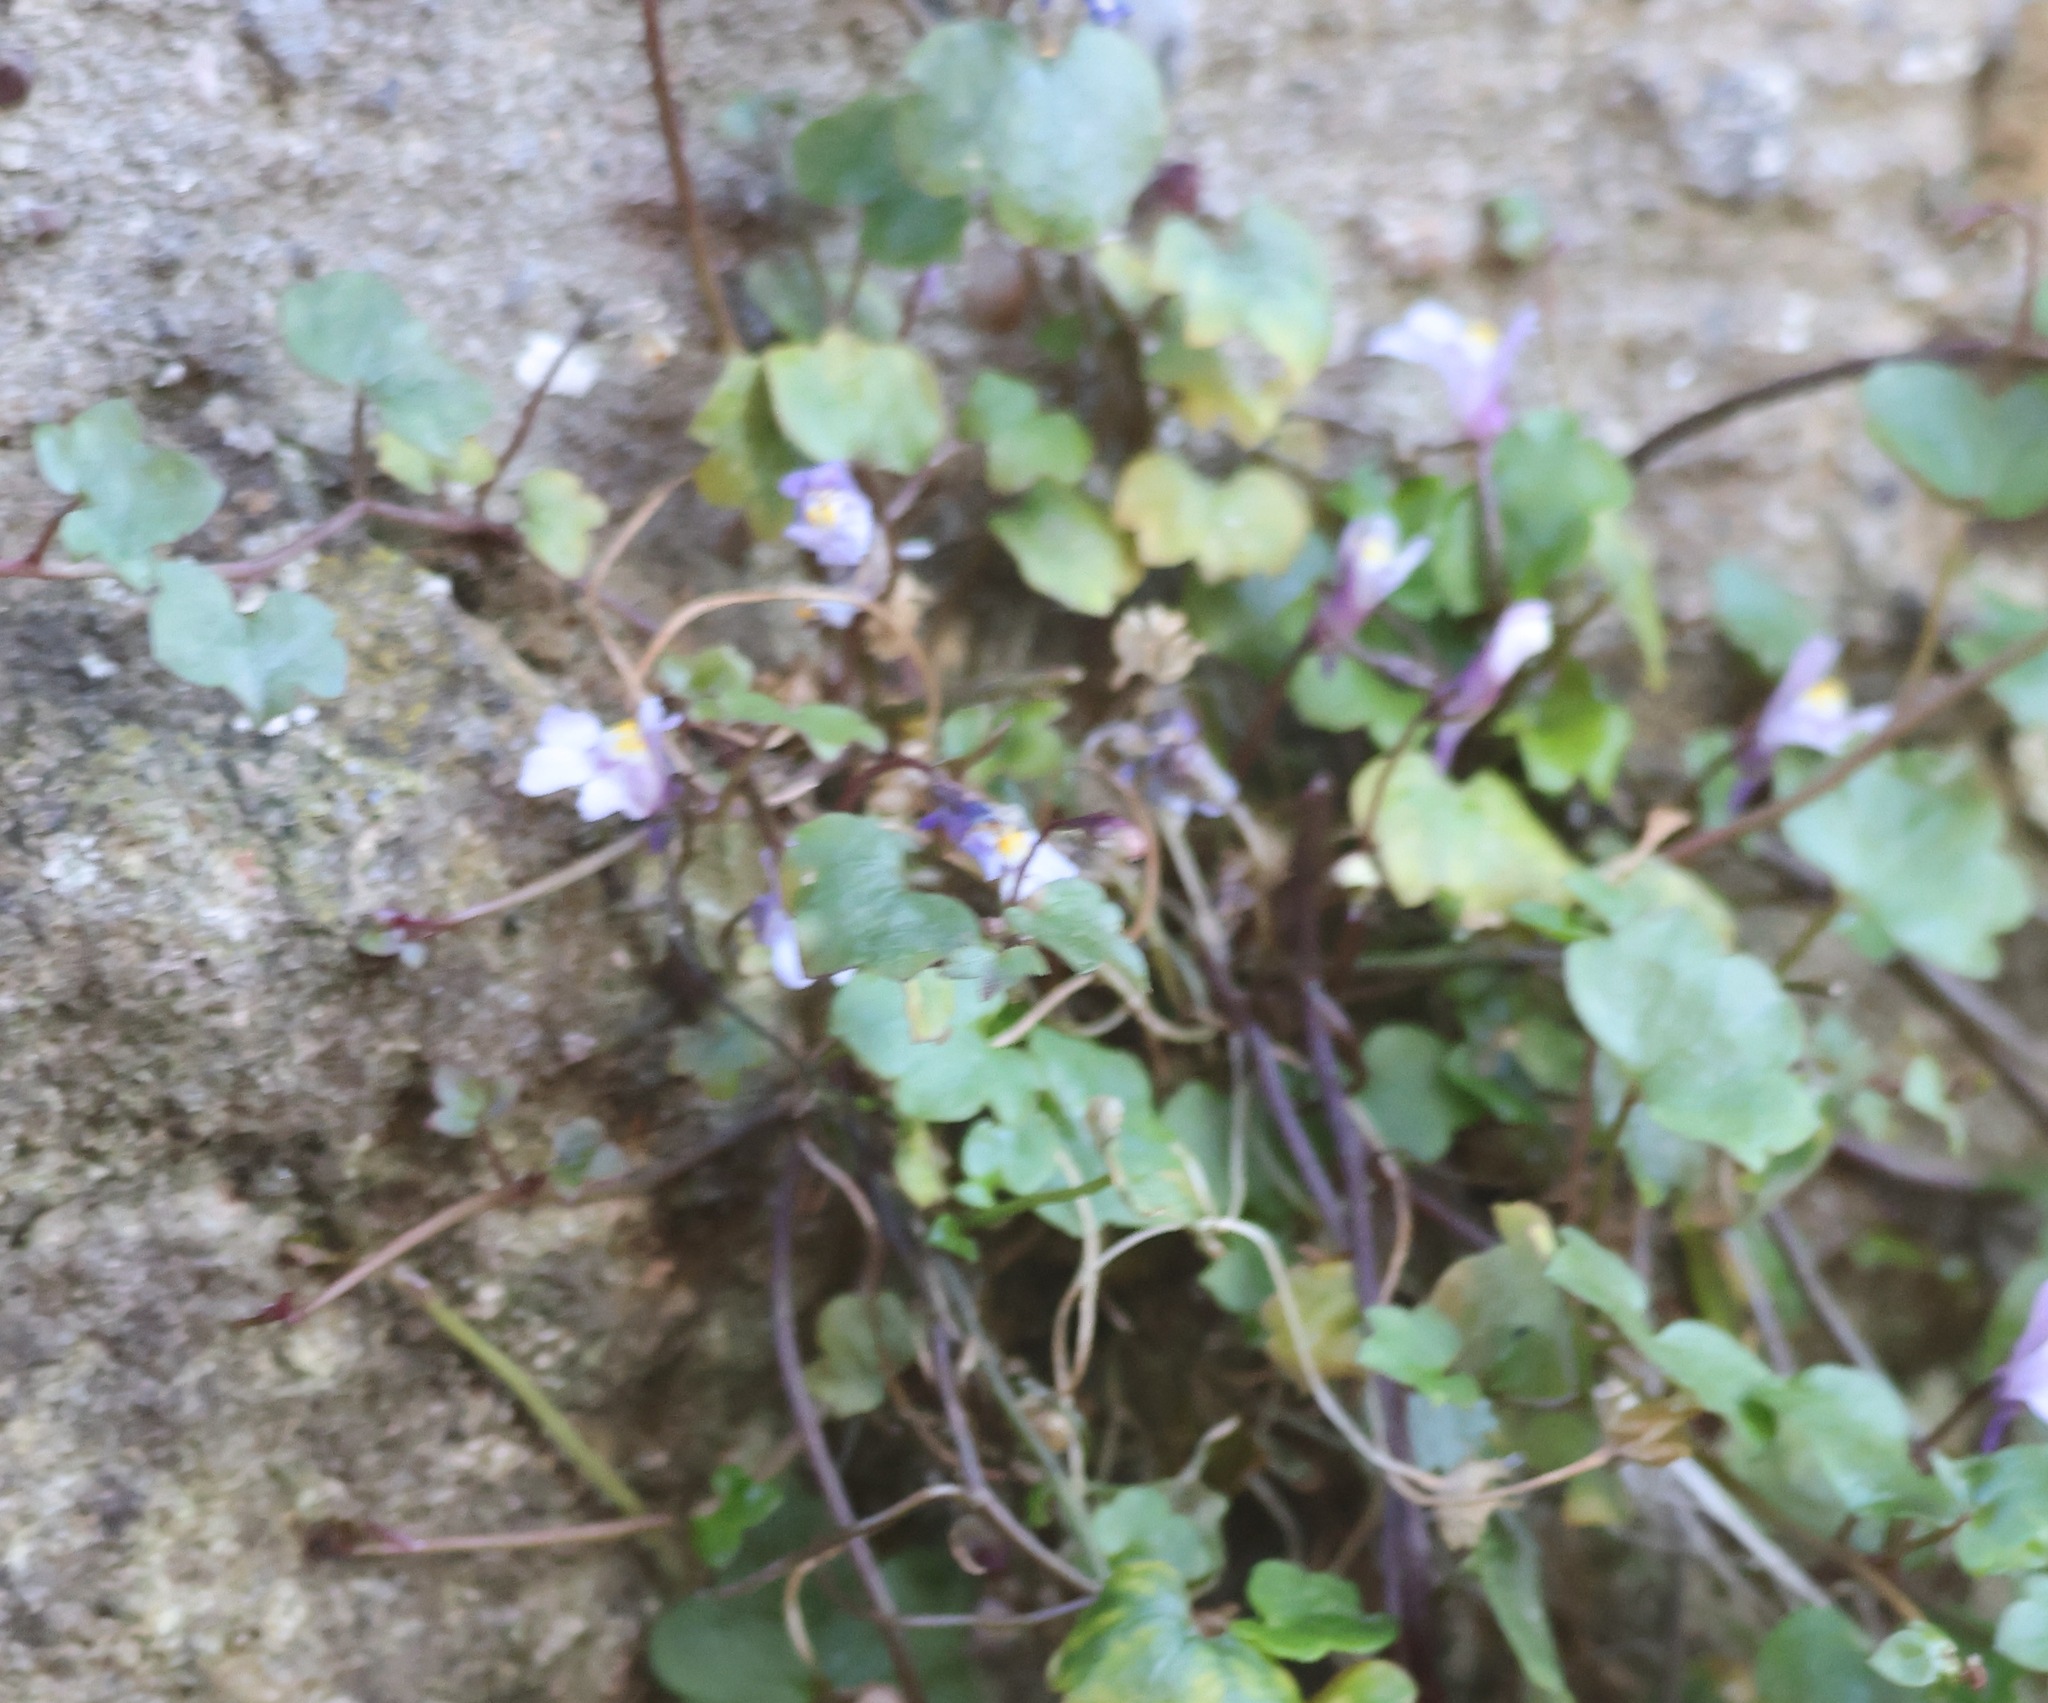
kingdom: Plantae
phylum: Tracheophyta
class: Magnoliopsida
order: Lamiales
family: Plantaginaceae
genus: Cymbalaria
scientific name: Cymbalaria muralis
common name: Ivy-leaved toadflax
